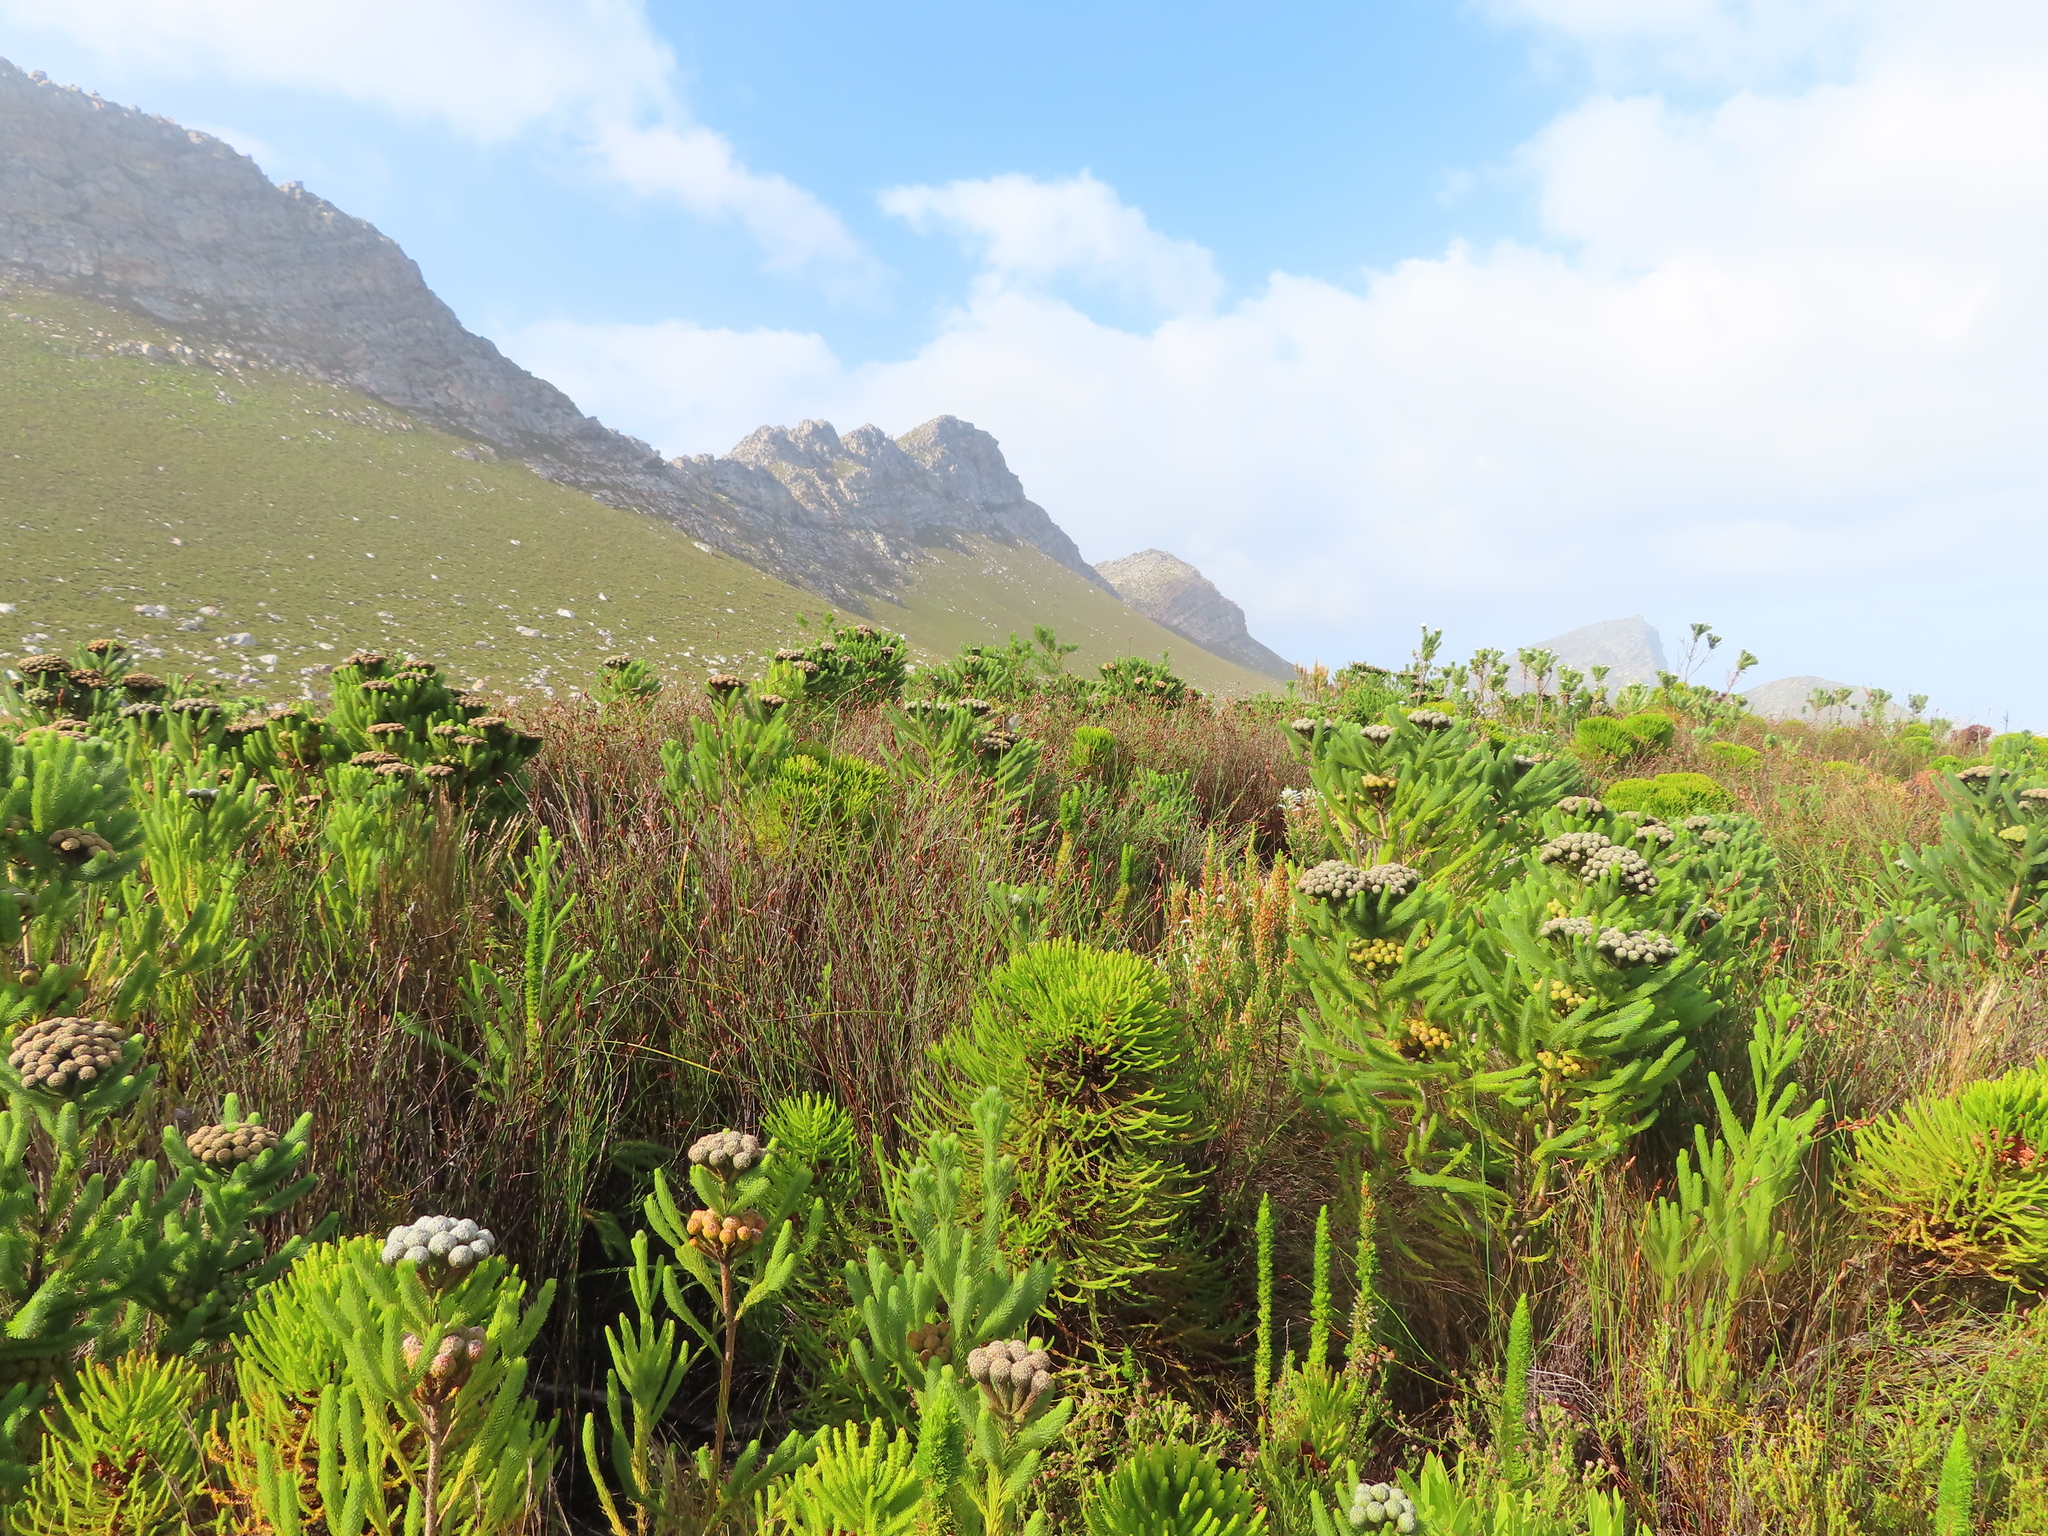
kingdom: Plantae
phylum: Tracheophyta
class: Magnoliopsida
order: Bruniales
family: Bruniaceae
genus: Berzelia
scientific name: Berzelia albiflora
